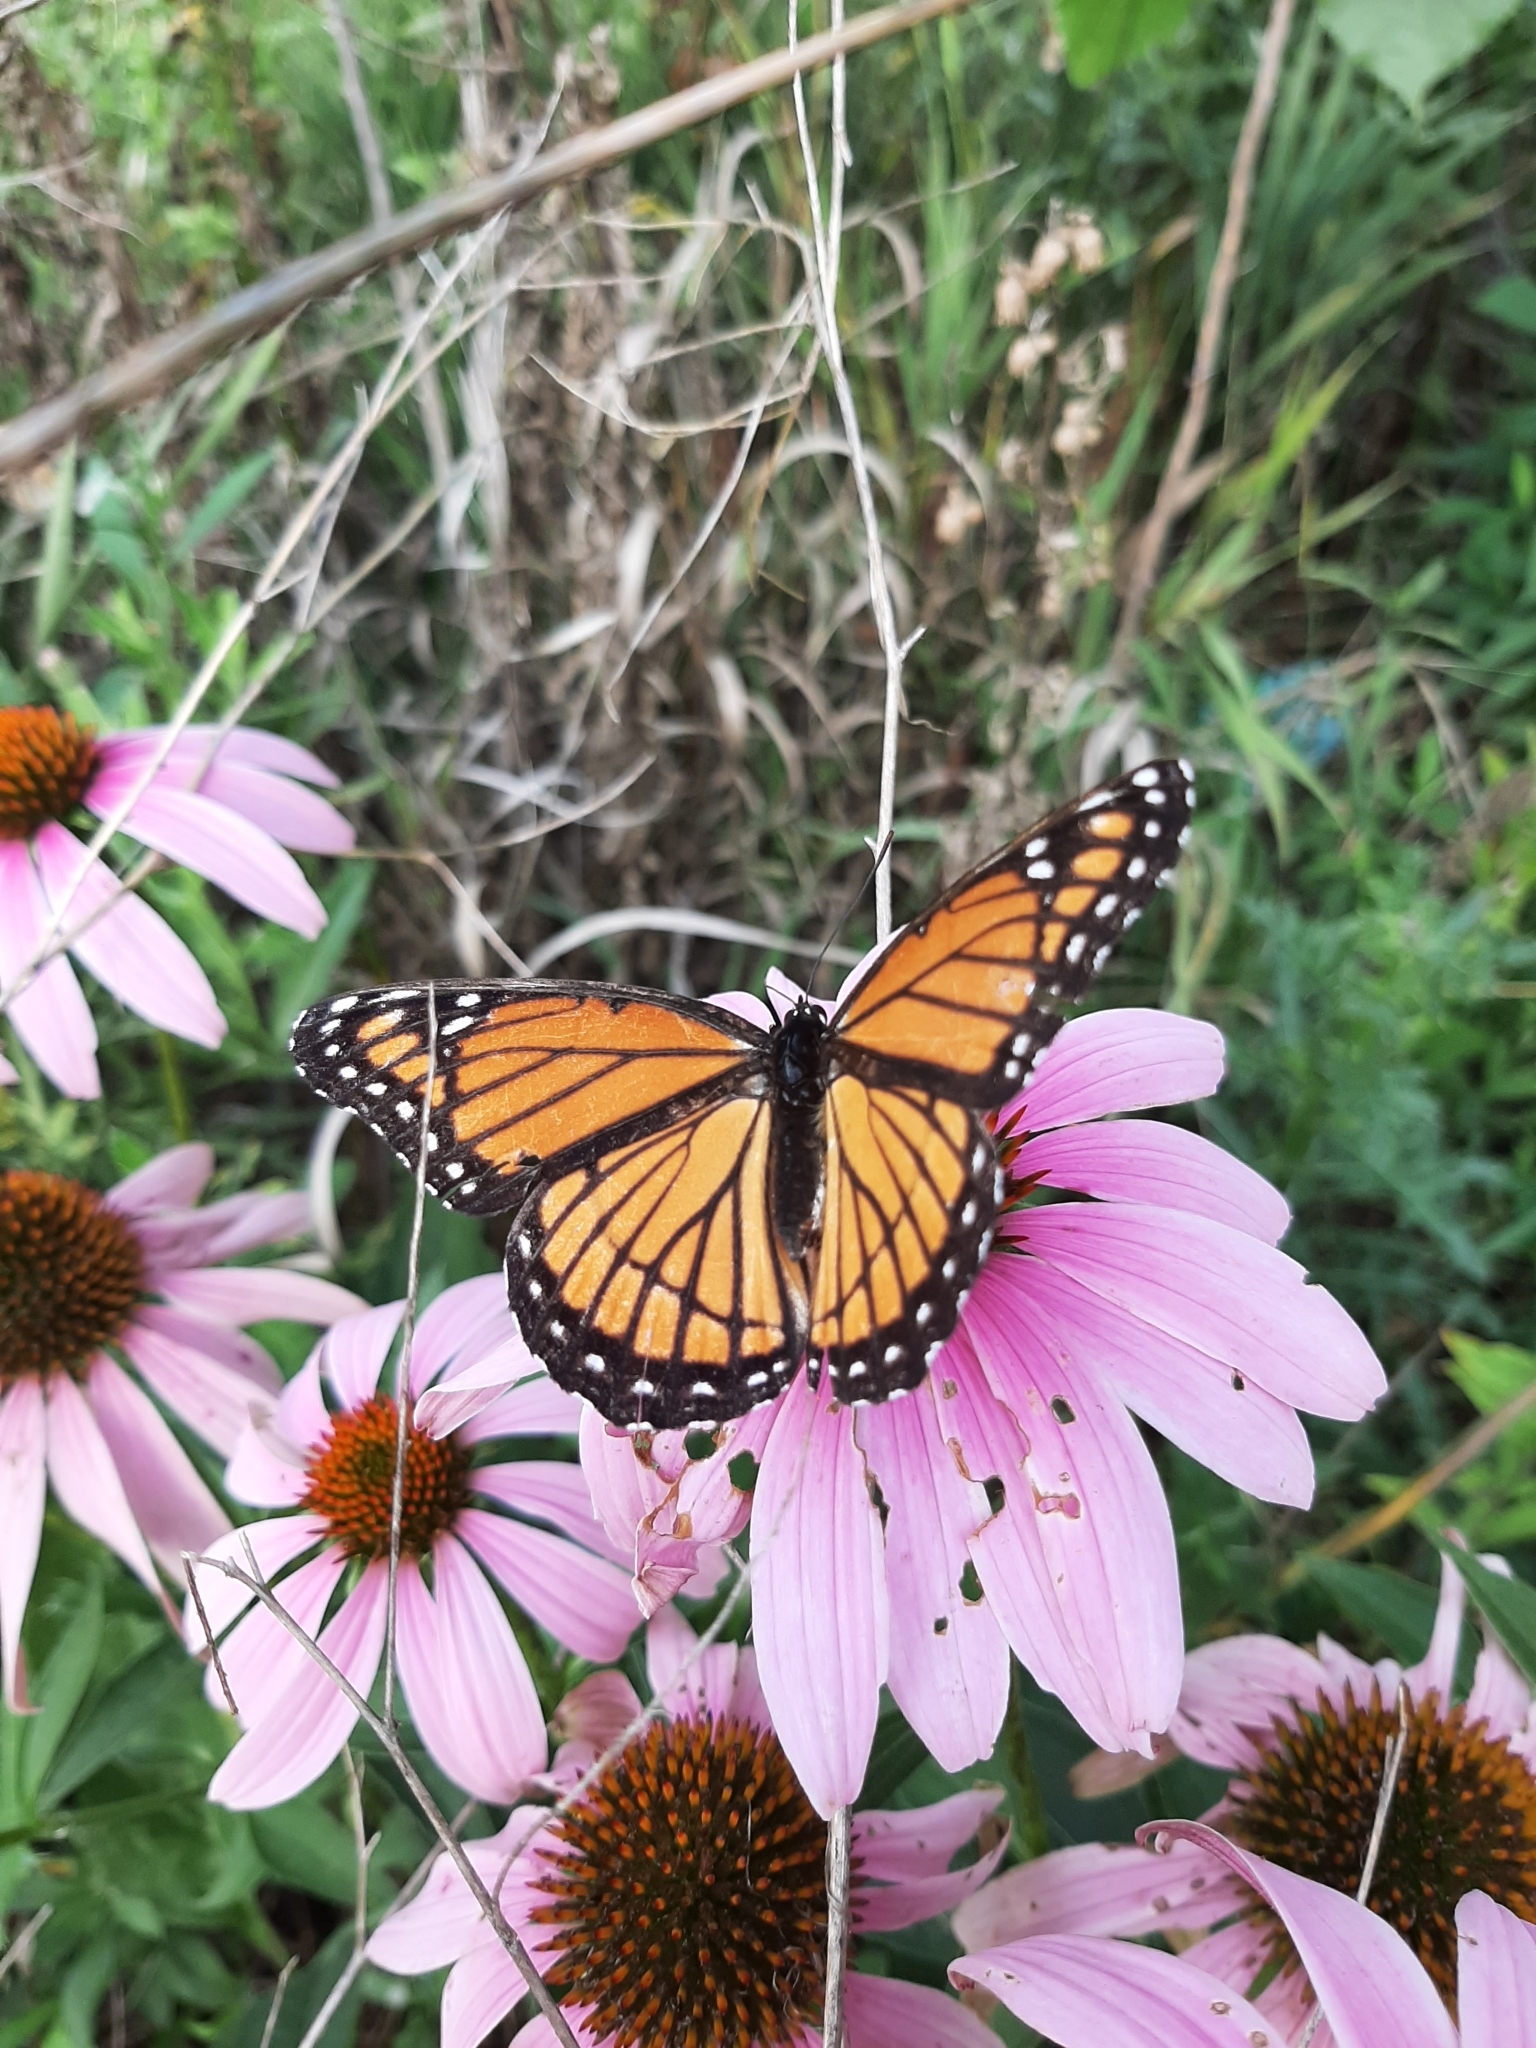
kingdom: Animalia
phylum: Arthropoda
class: Insecta
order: Lepidoptera
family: Nymphalidae
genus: Limenitis
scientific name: Limenitis archippus
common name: Viceroy
